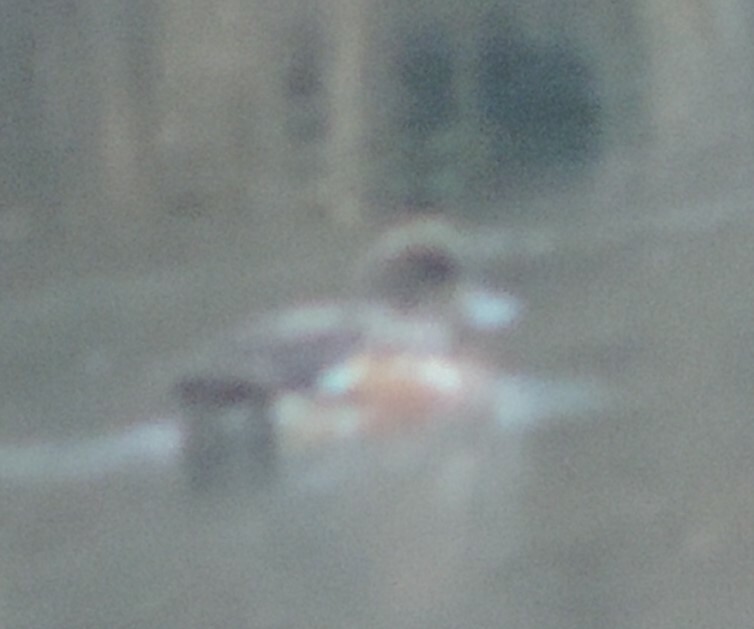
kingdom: Animalia
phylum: Chordata
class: Aves
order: Anseriformes
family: Anatidae
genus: Mareca
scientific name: Mareca americana
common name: American wigeon
